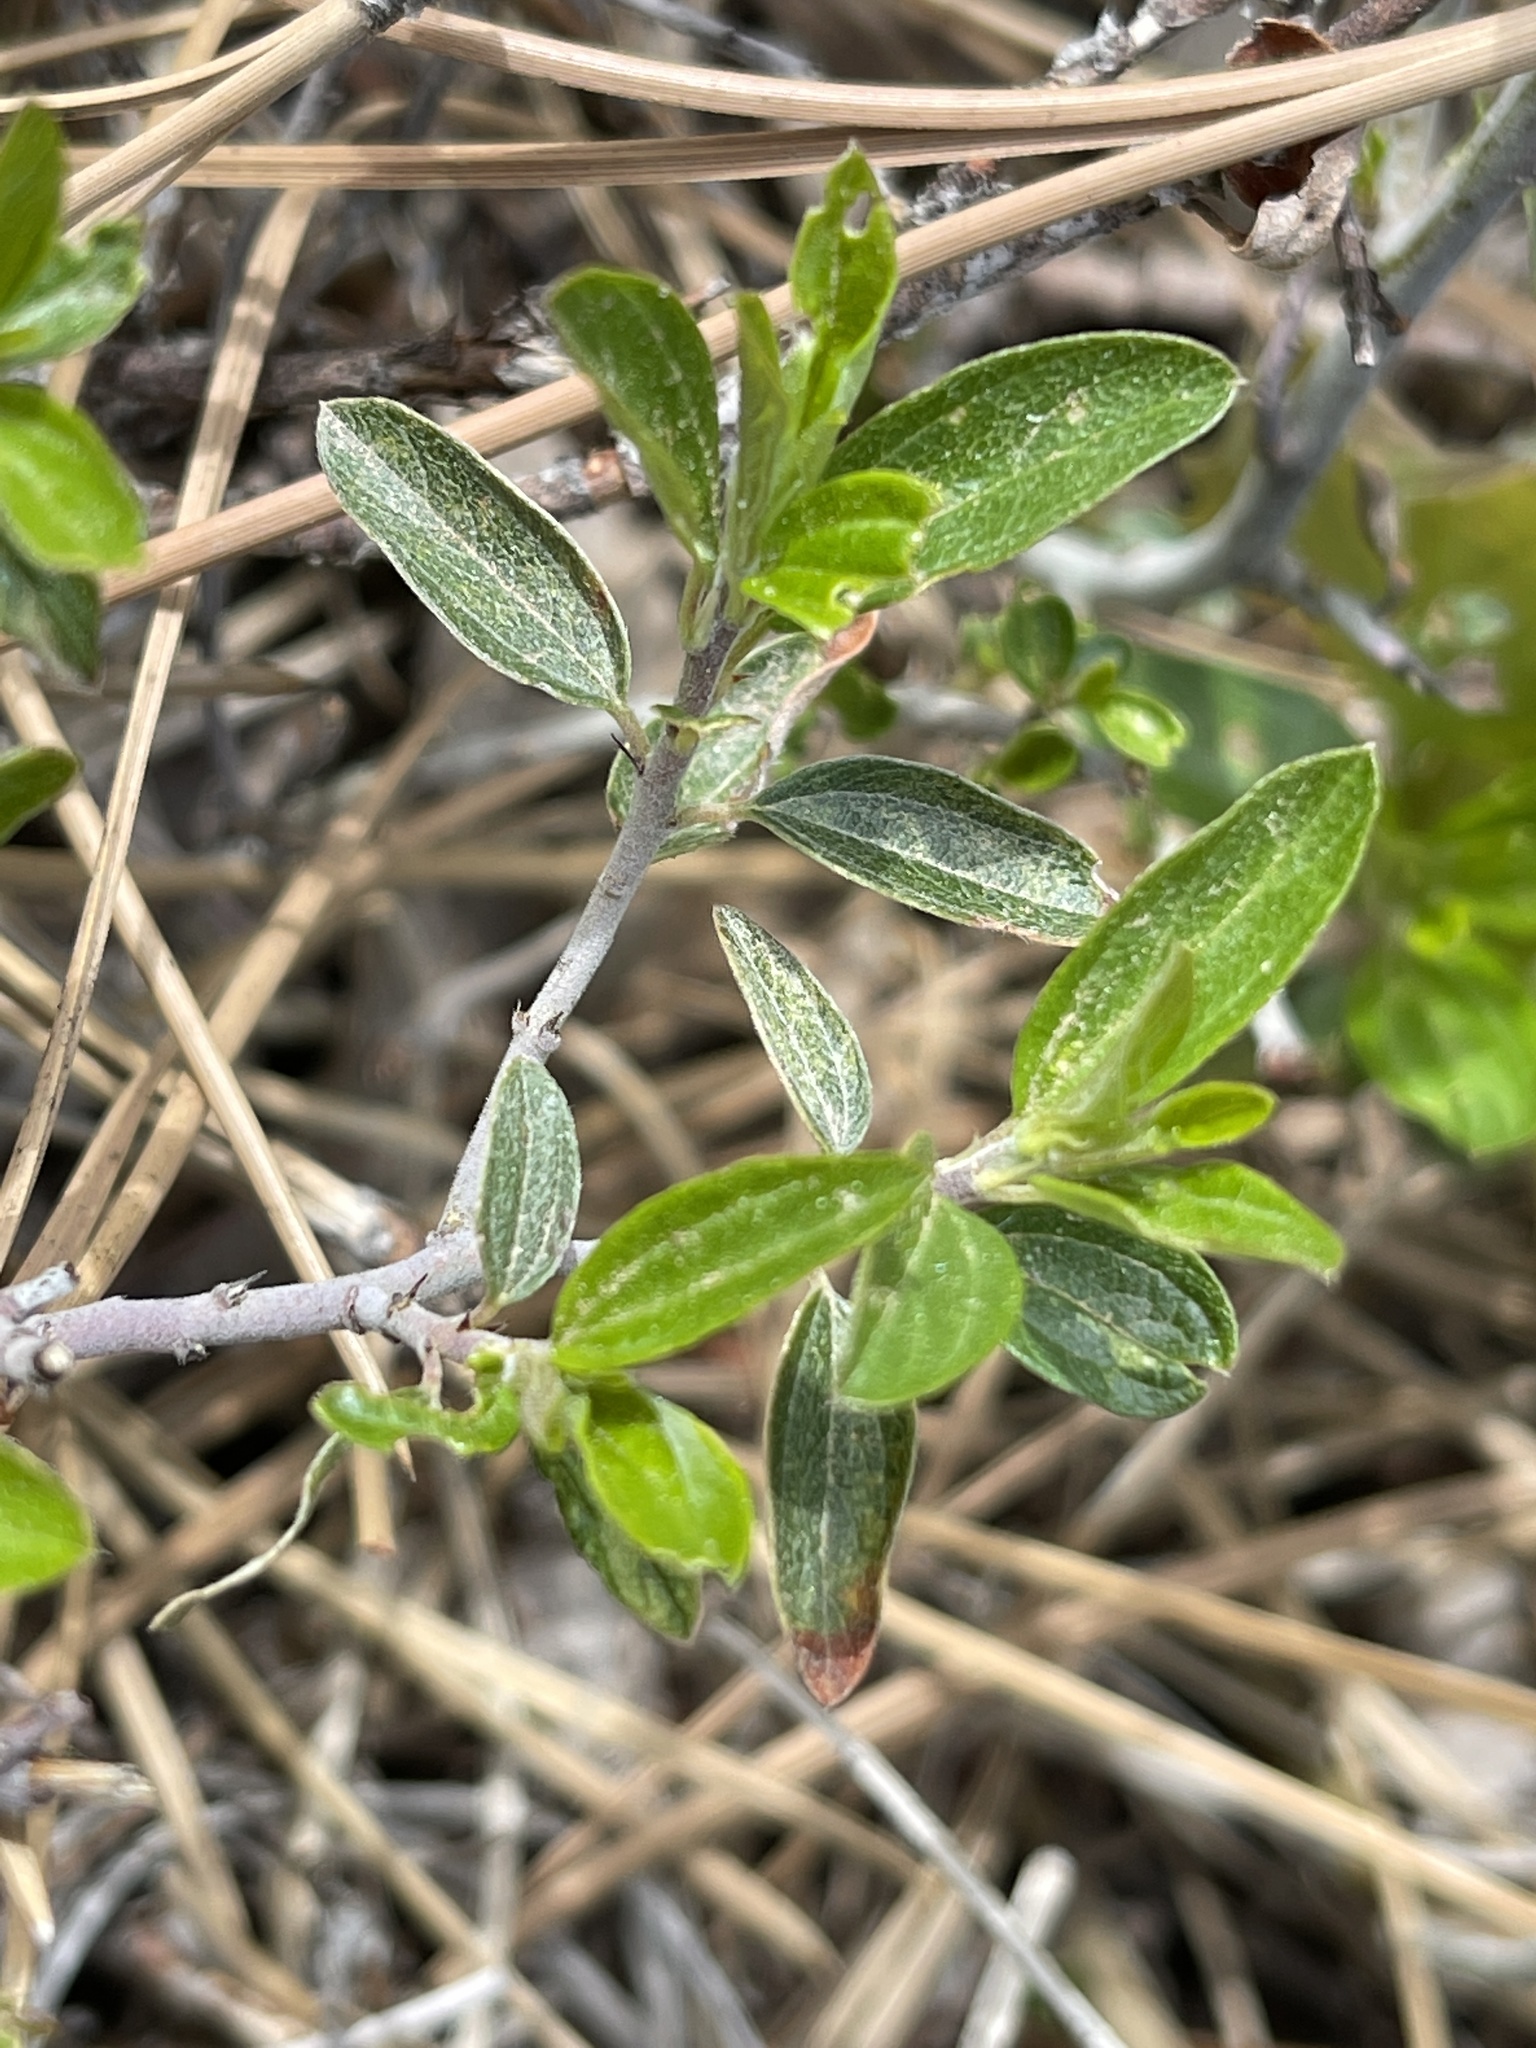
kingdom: Plantae
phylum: Tracheophyta
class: Magnoliopsida
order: Rosales
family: Rhamnaceae
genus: Ceanothus
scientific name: Ceanothus fendleri
